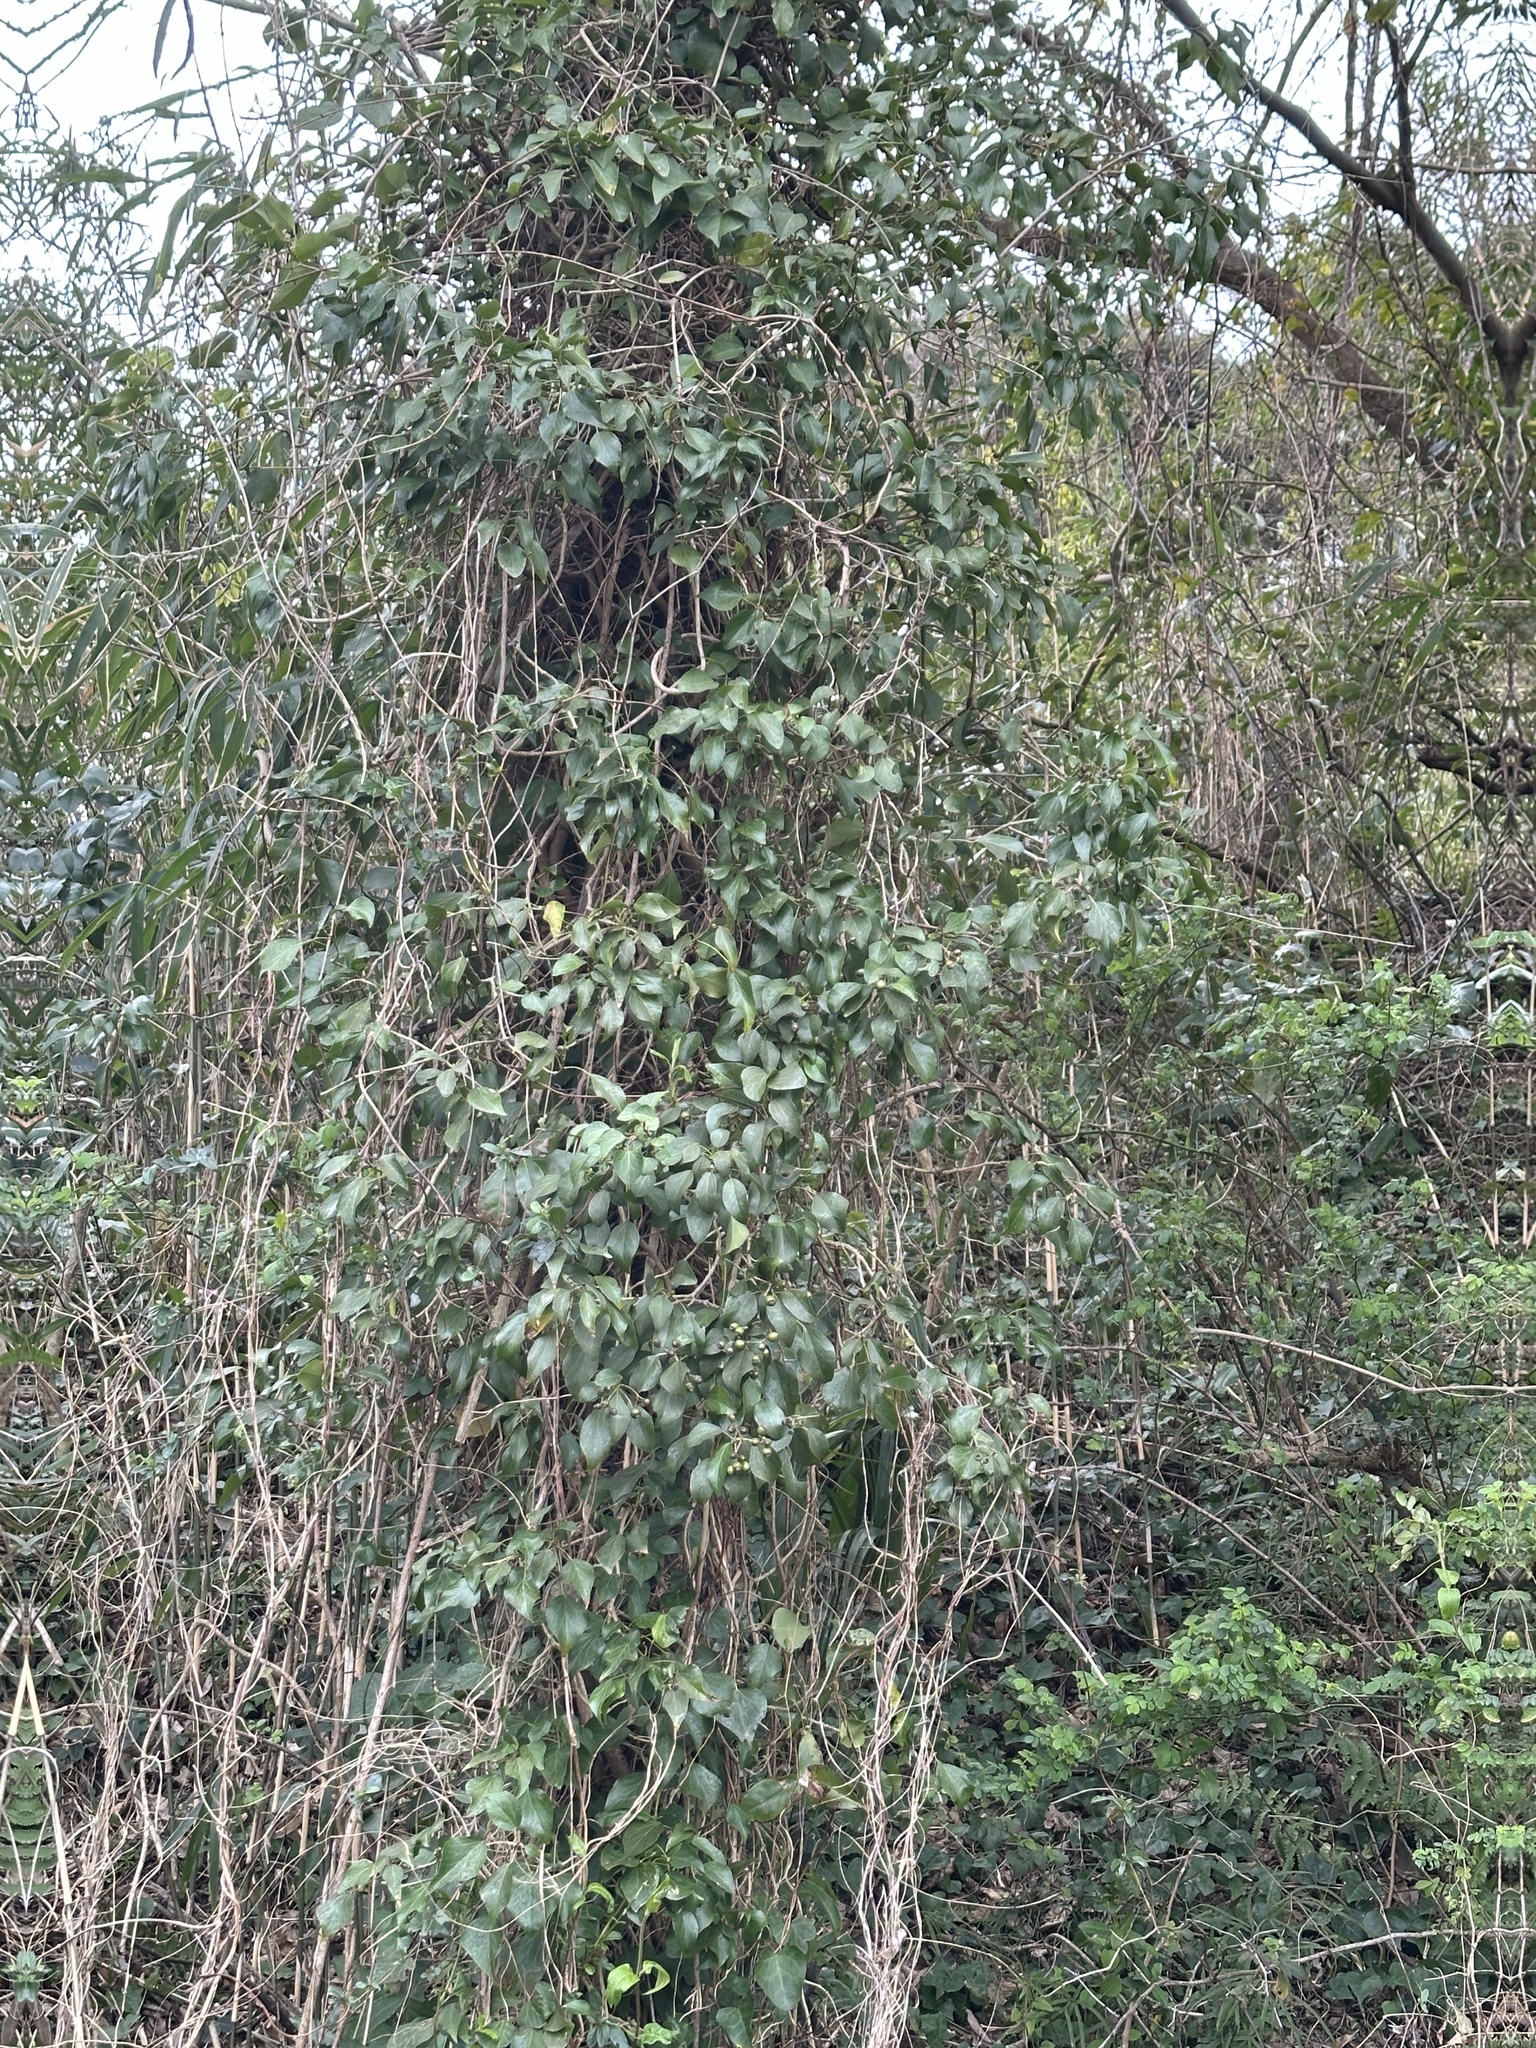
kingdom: Plantae
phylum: Tracheophyta
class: Magnoliopsida
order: Apiales
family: Araliaceae
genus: Hedera
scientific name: Hedera rhombea
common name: Japanese ivy
